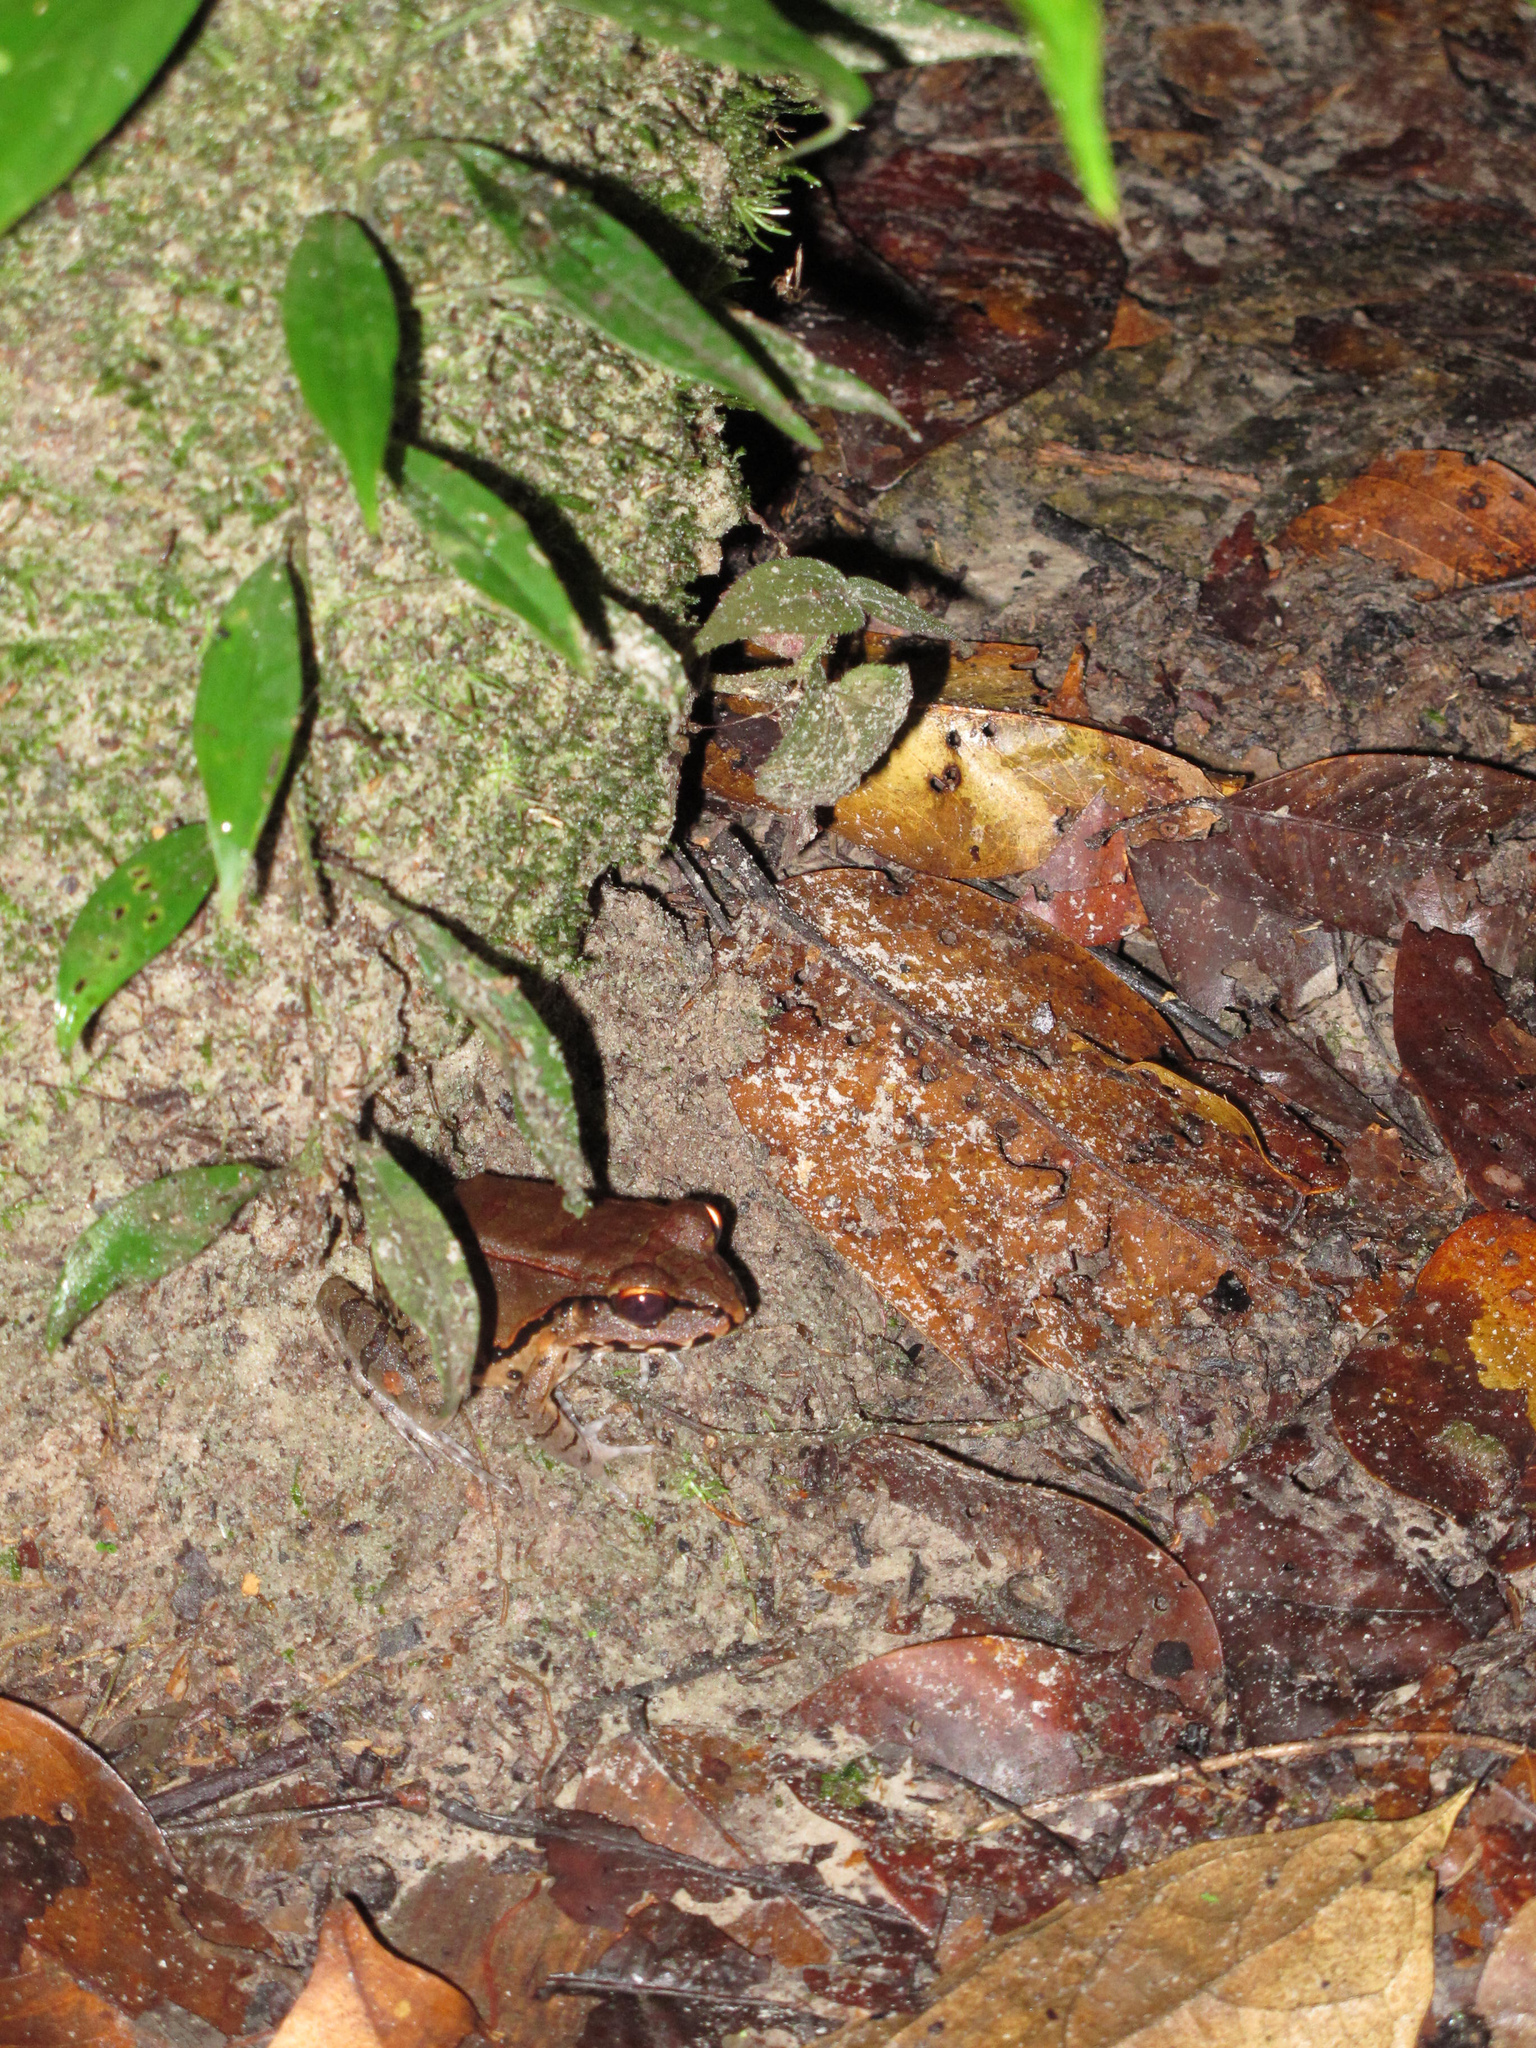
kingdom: Animalia
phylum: Chordata
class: Amphibia
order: Anura
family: Leptodactylidae
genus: Leptodactylus
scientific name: Leptodactylus pentadactylus
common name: Smoky jungle frog
